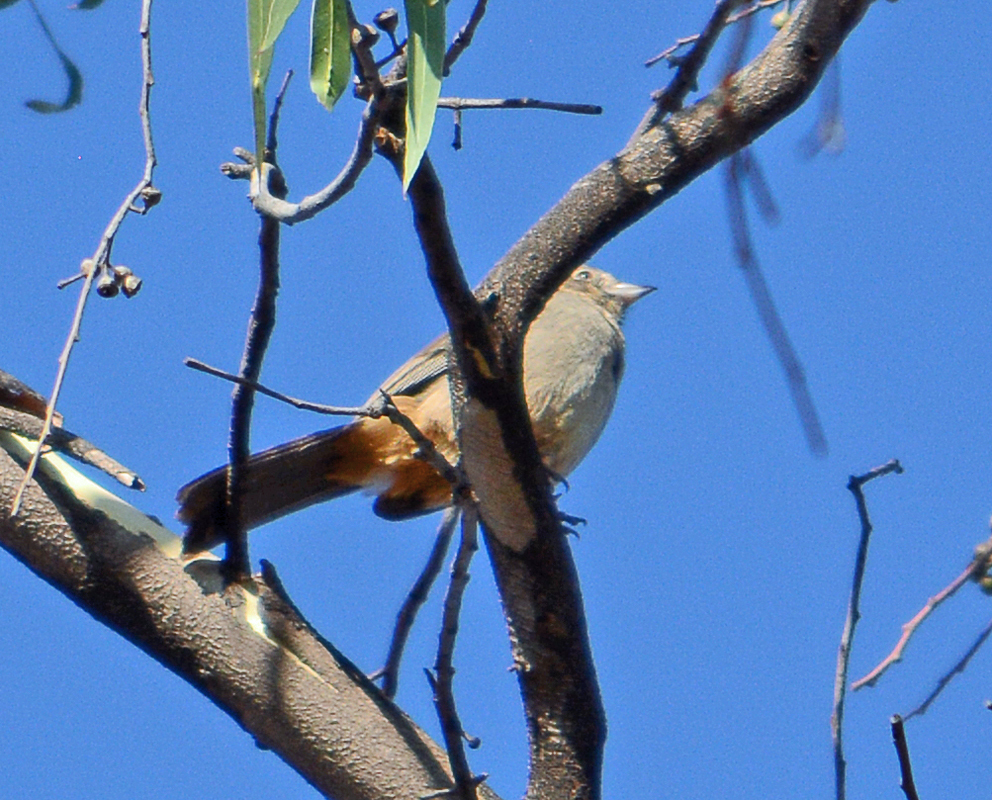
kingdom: Animalia
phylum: Chordata
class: Aves
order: Passeriformes
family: Passerellidae
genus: Melozone
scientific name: Melozone fusca
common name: Canyon towhee
